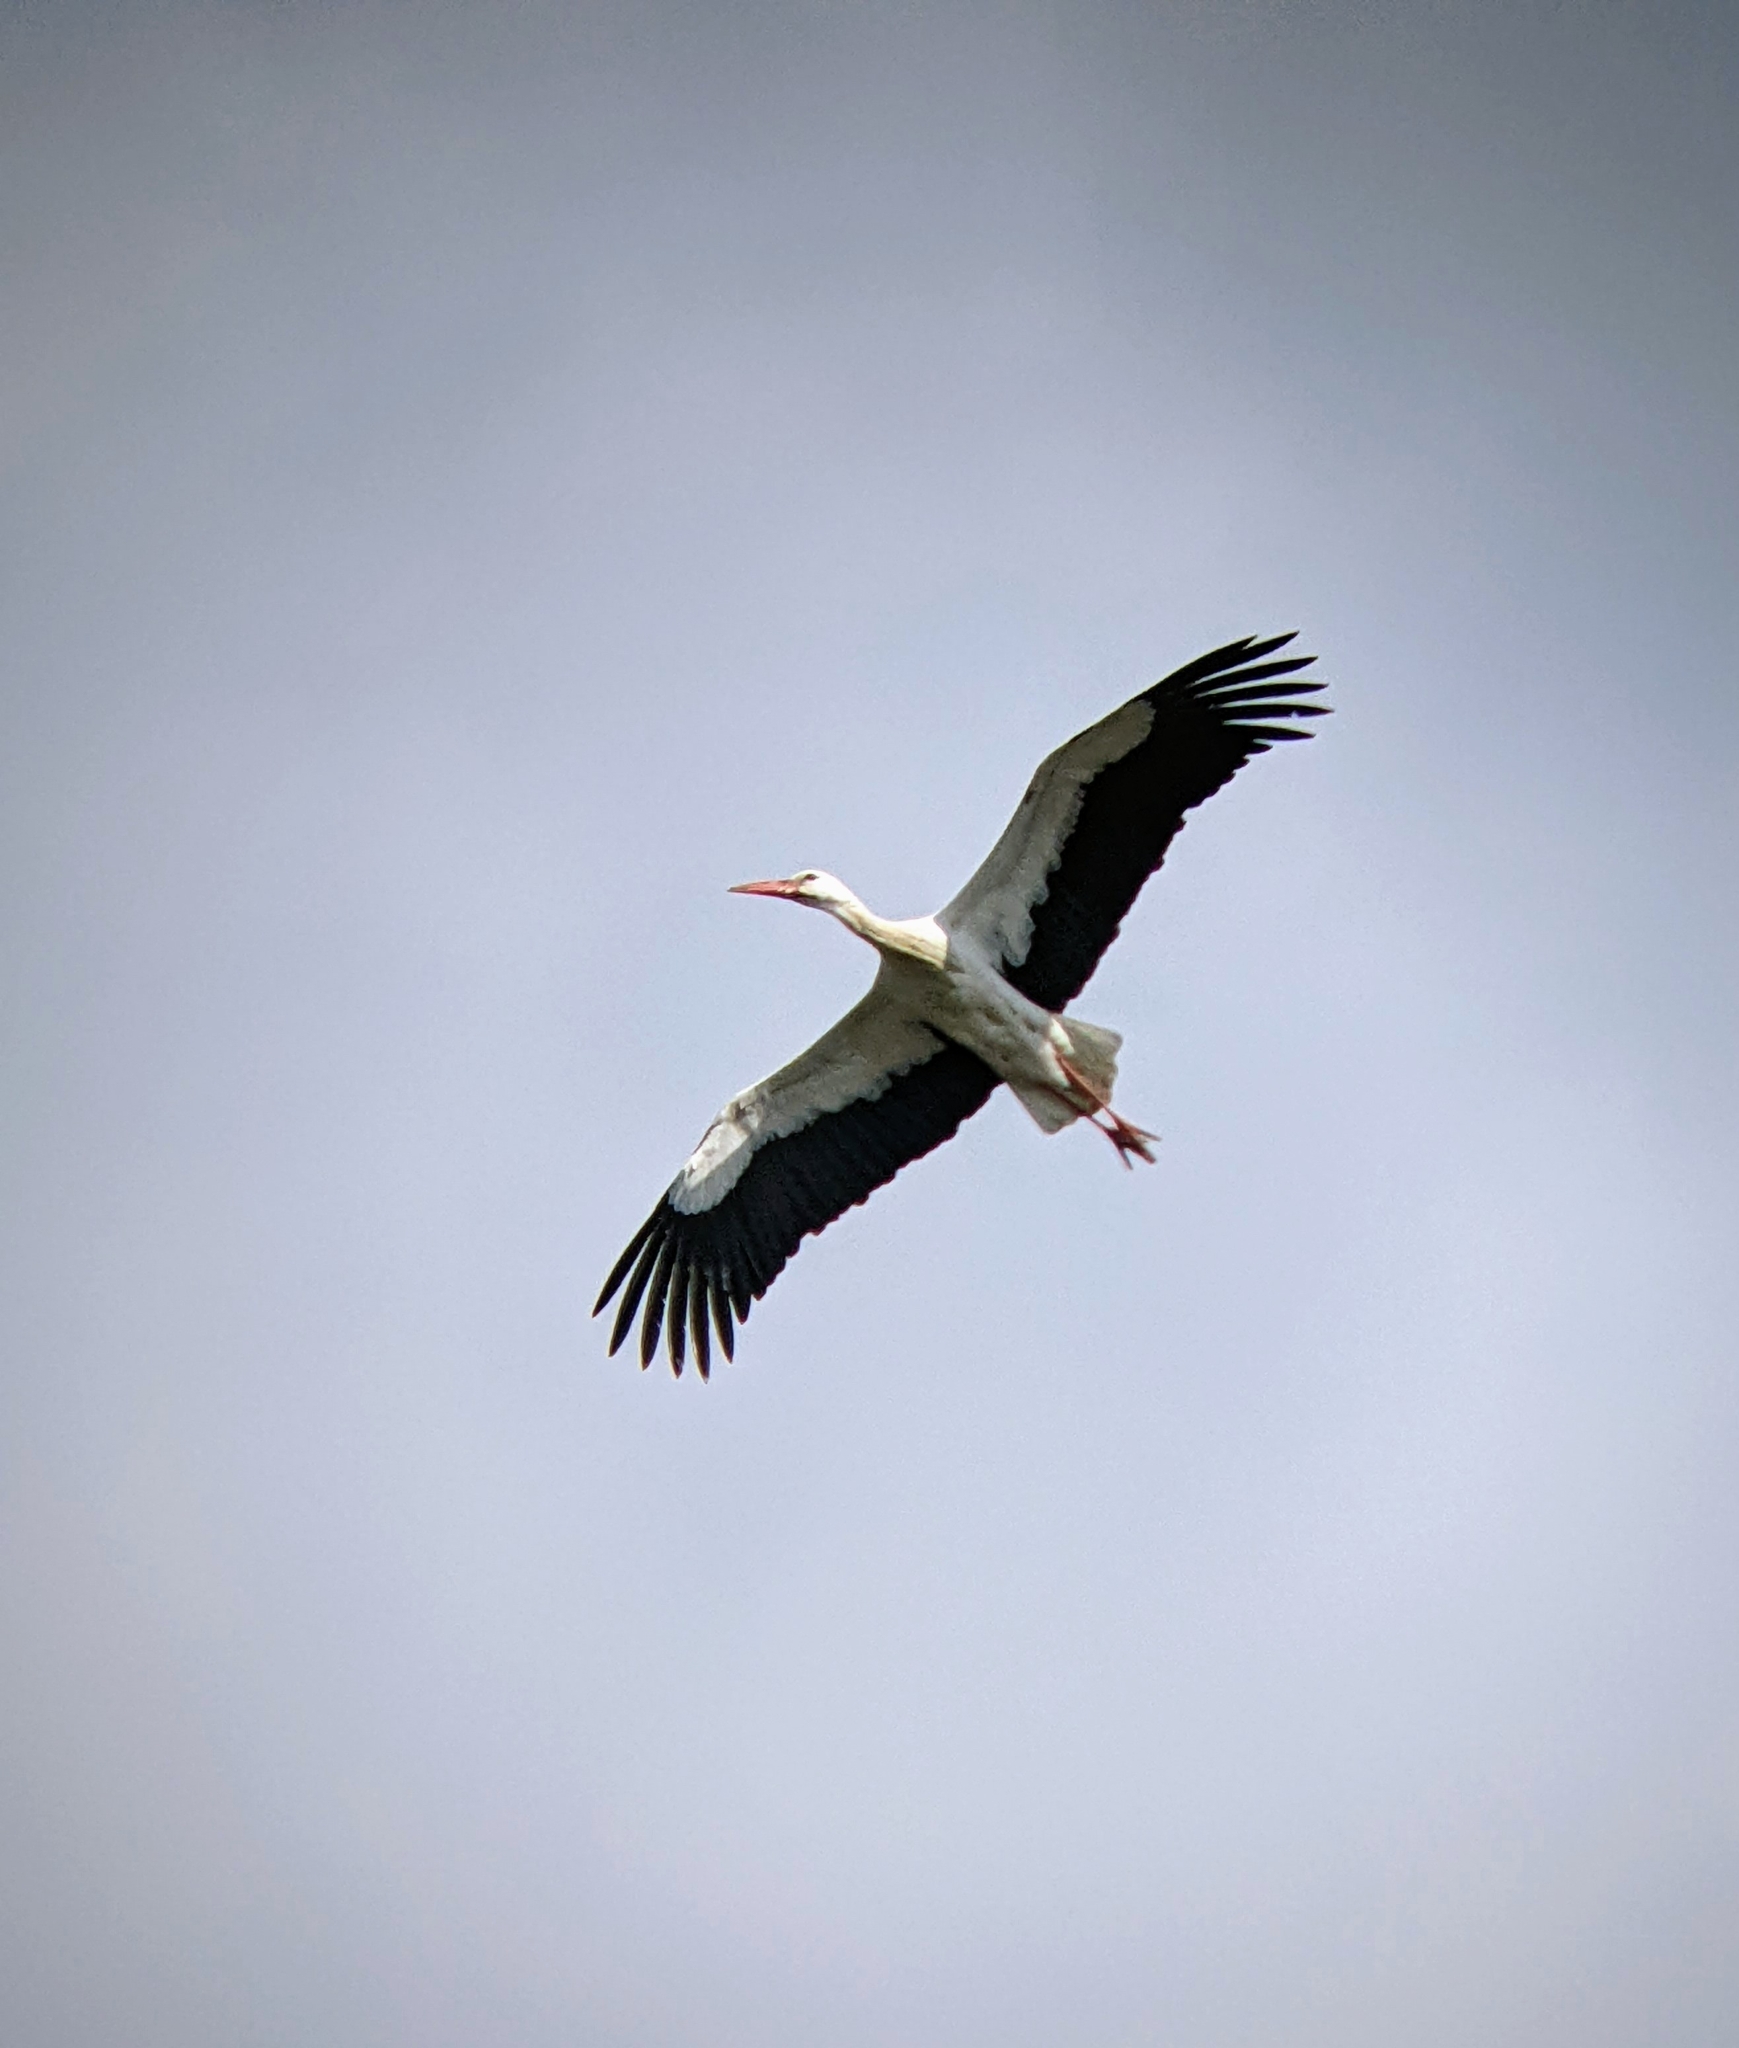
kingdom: Animalia
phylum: Chordata
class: Aves
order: Ciconiiformes
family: Ciconiidae
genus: Ciconia
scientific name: Ciconia ciconia
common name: White stork
